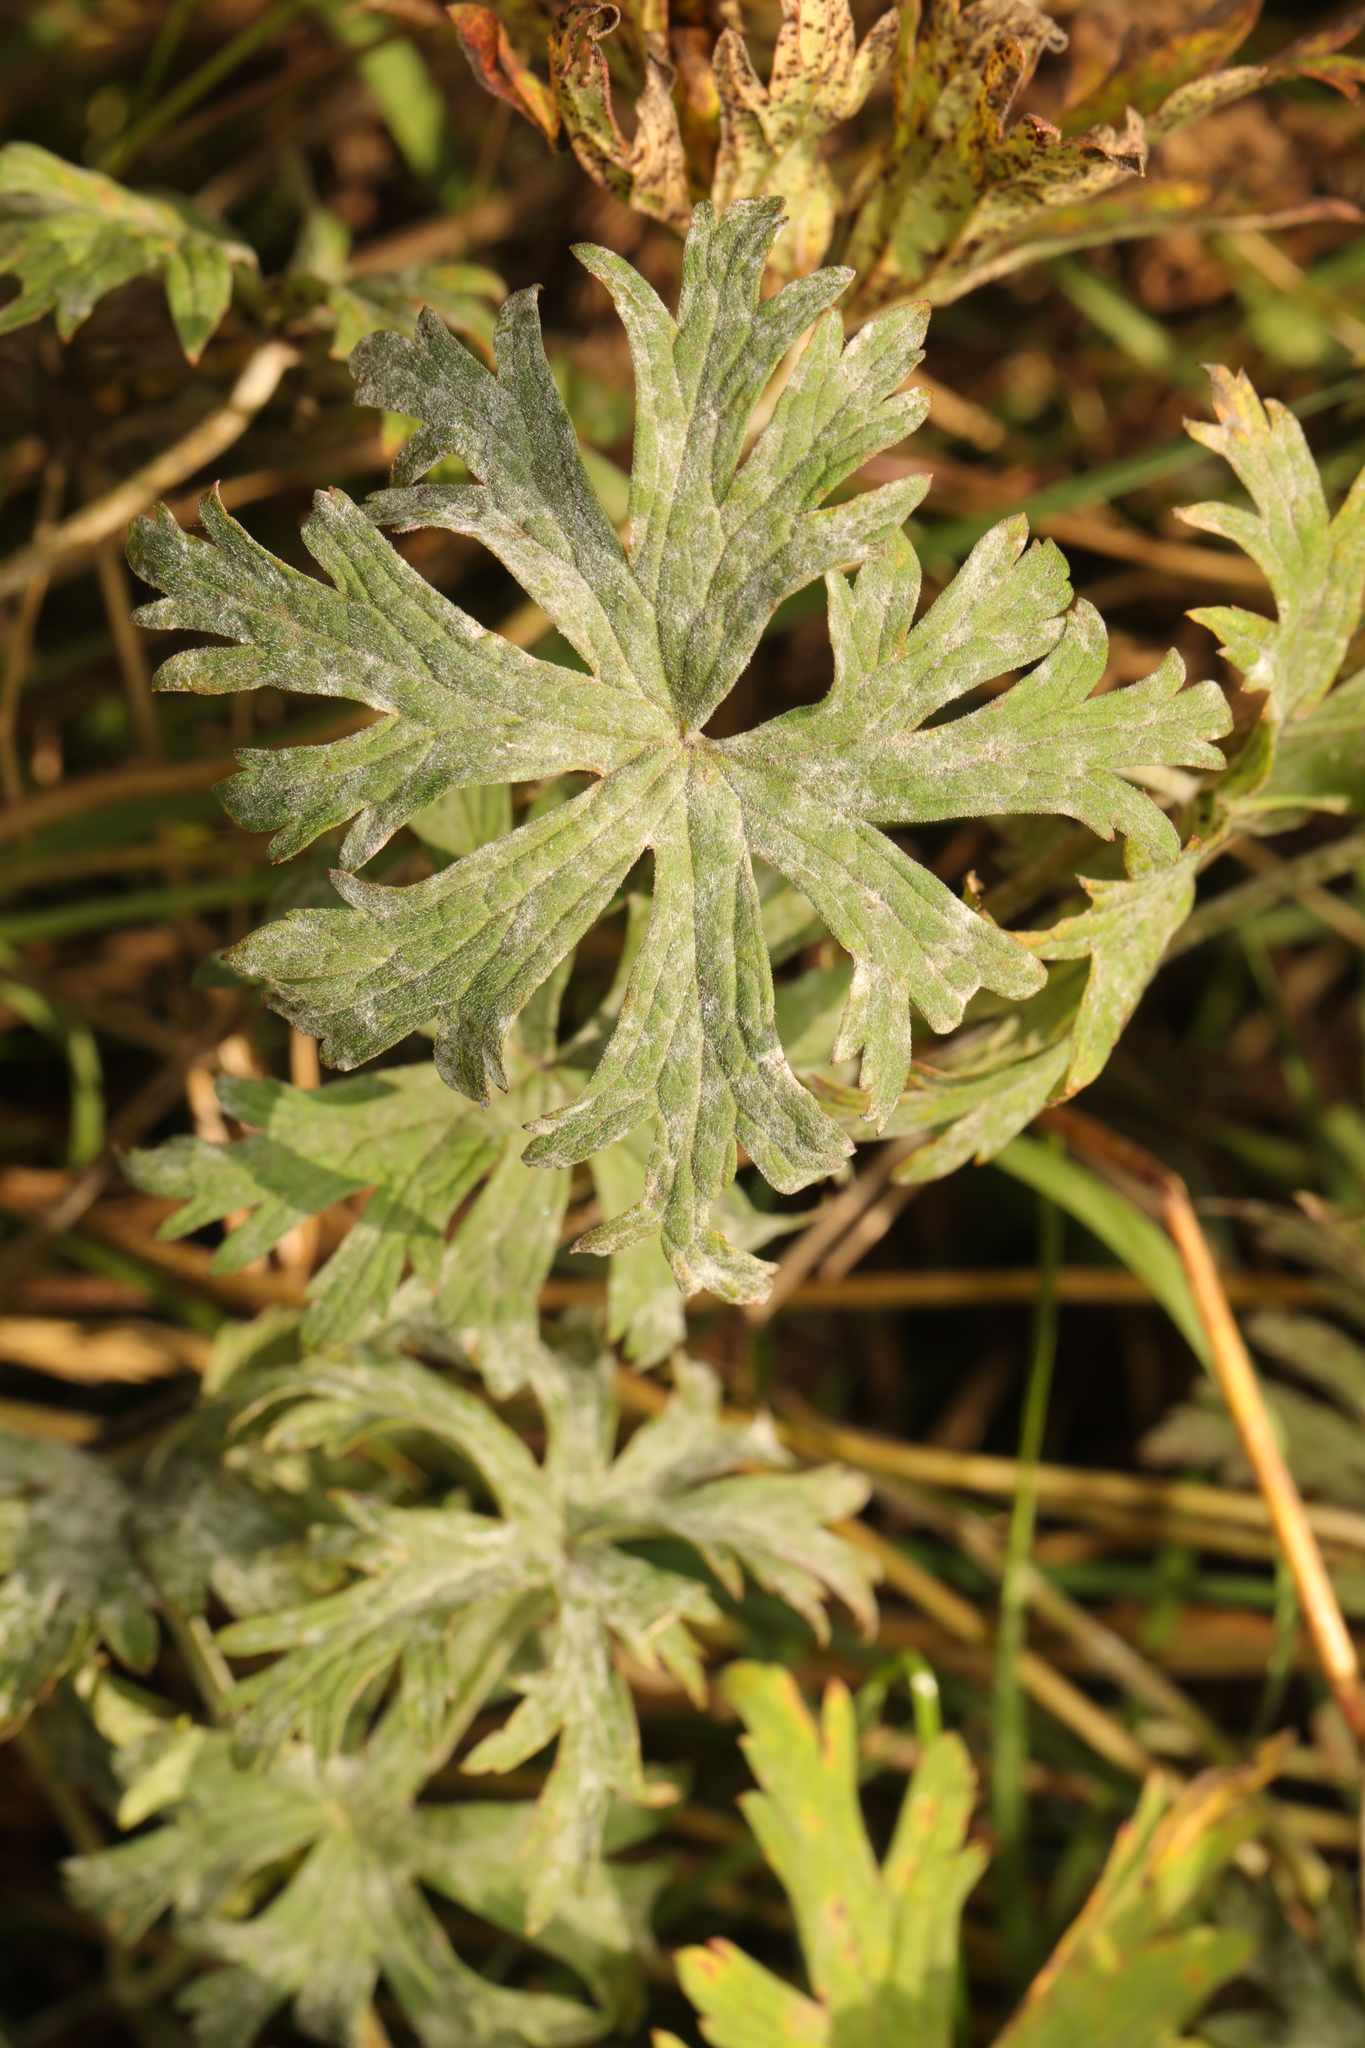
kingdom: Plantae
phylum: Tracheophyta
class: Magnoliopsida
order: Geraniales
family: Geraniaceae
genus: Geranium
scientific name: Geranium pratense
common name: Meadow crane's-bill
